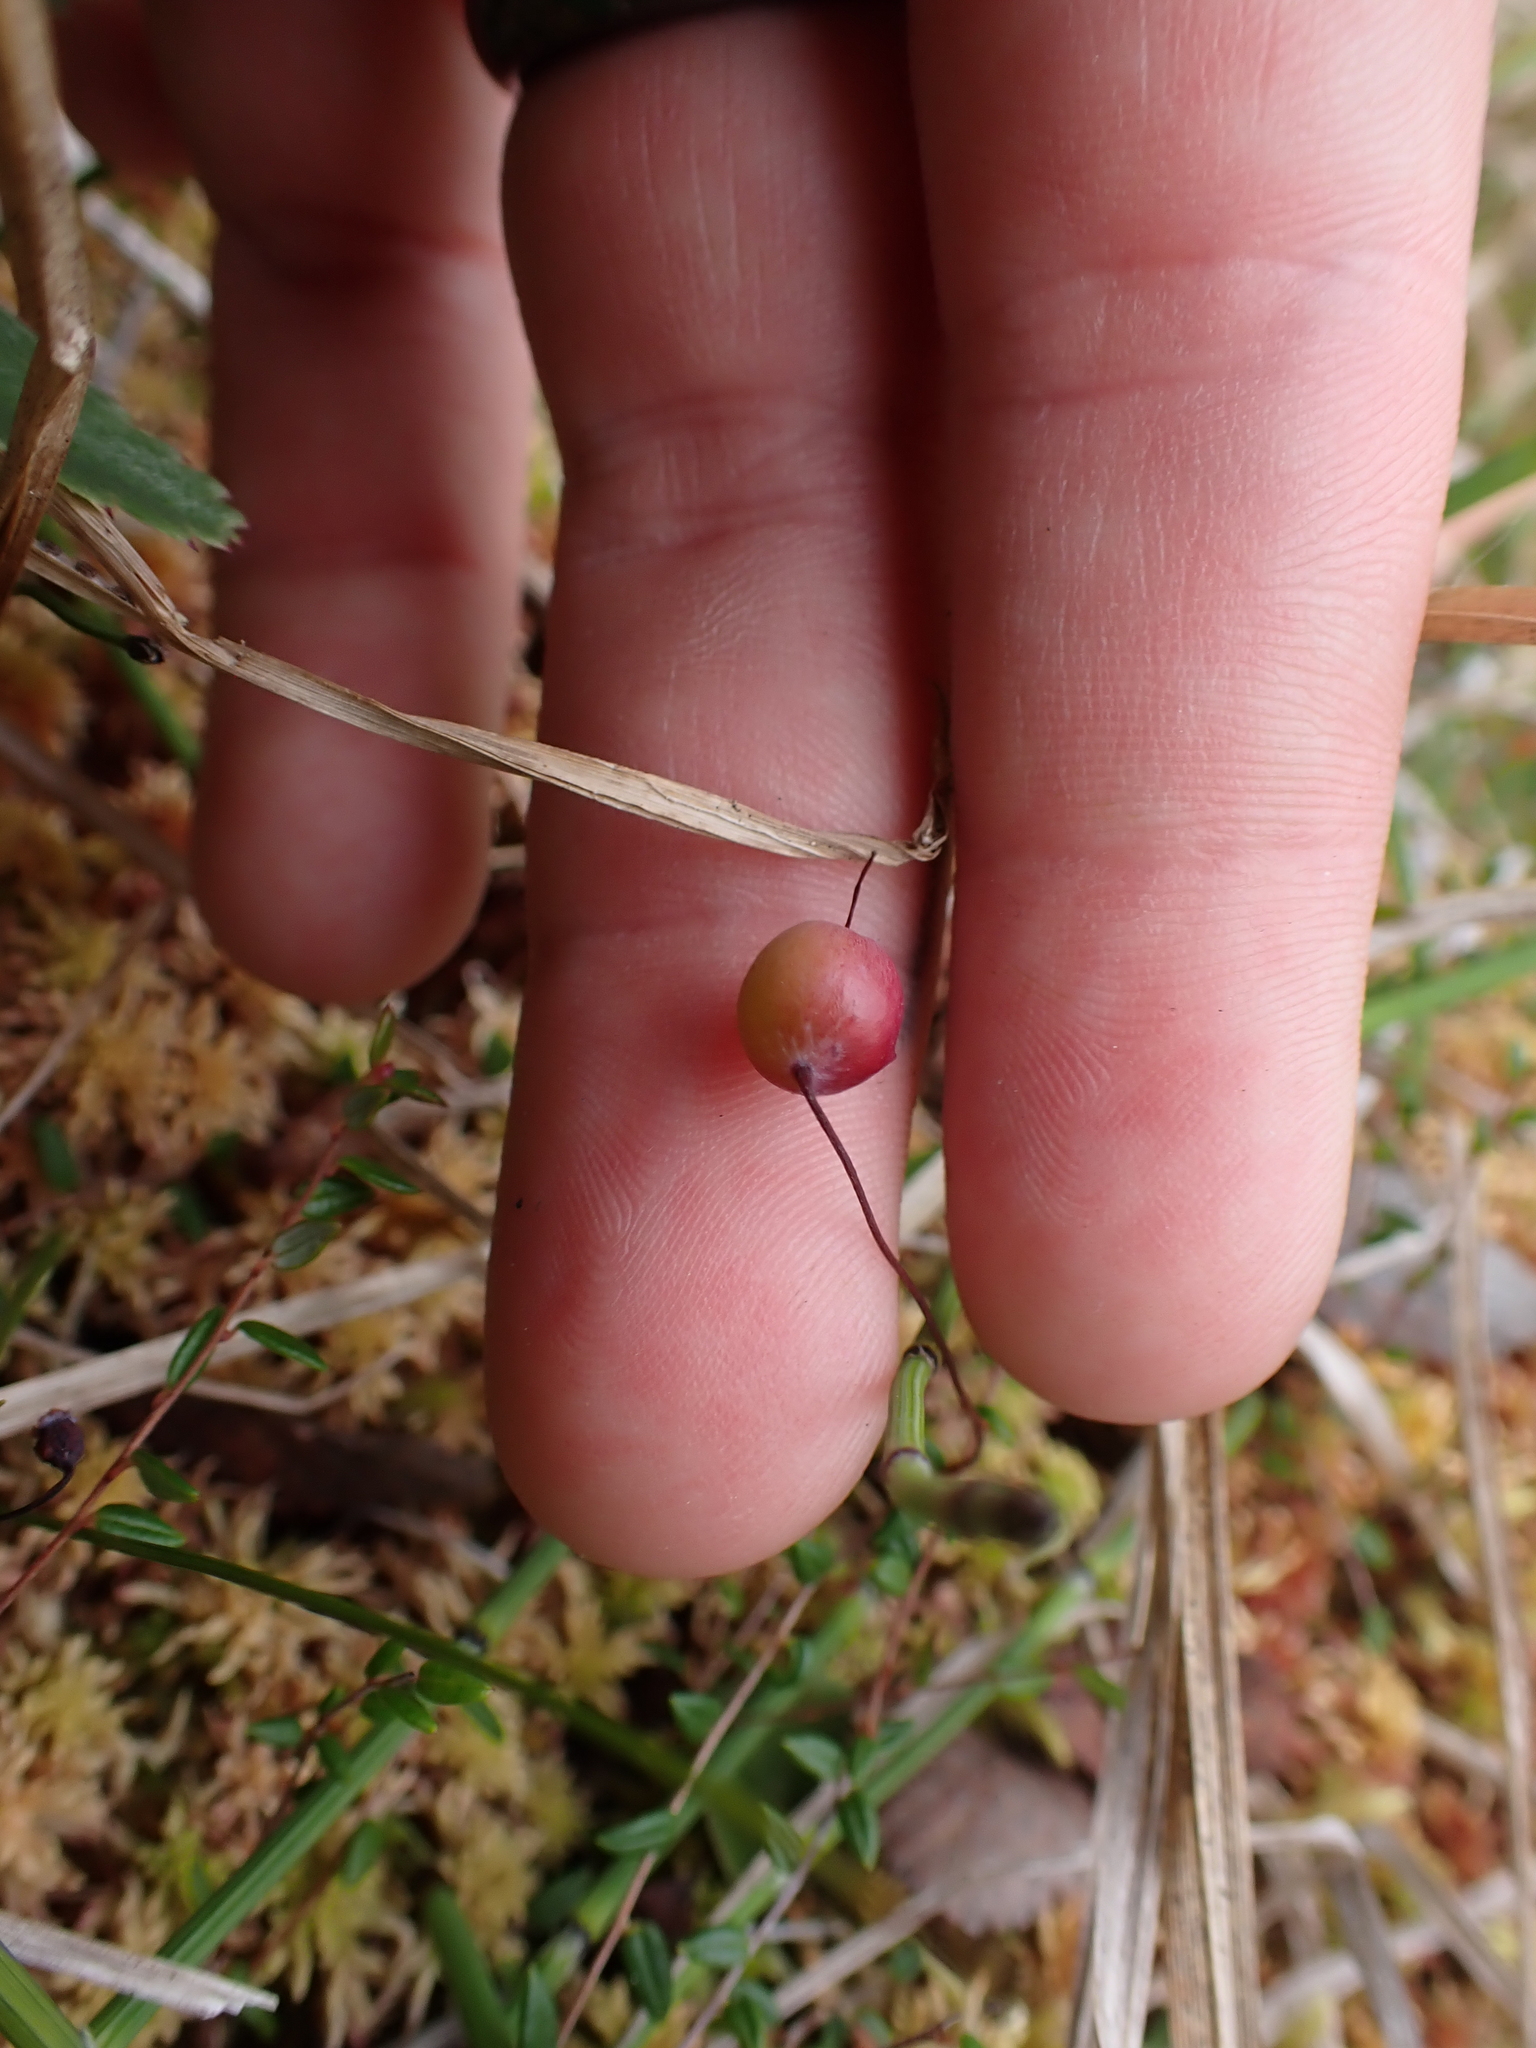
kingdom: Plantae
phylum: Tracheophyta
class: Magnoliopsida
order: Ericales
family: Ericaceae
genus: Vaccinium
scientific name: Vaccinium oxycoccos
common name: Cranberry
